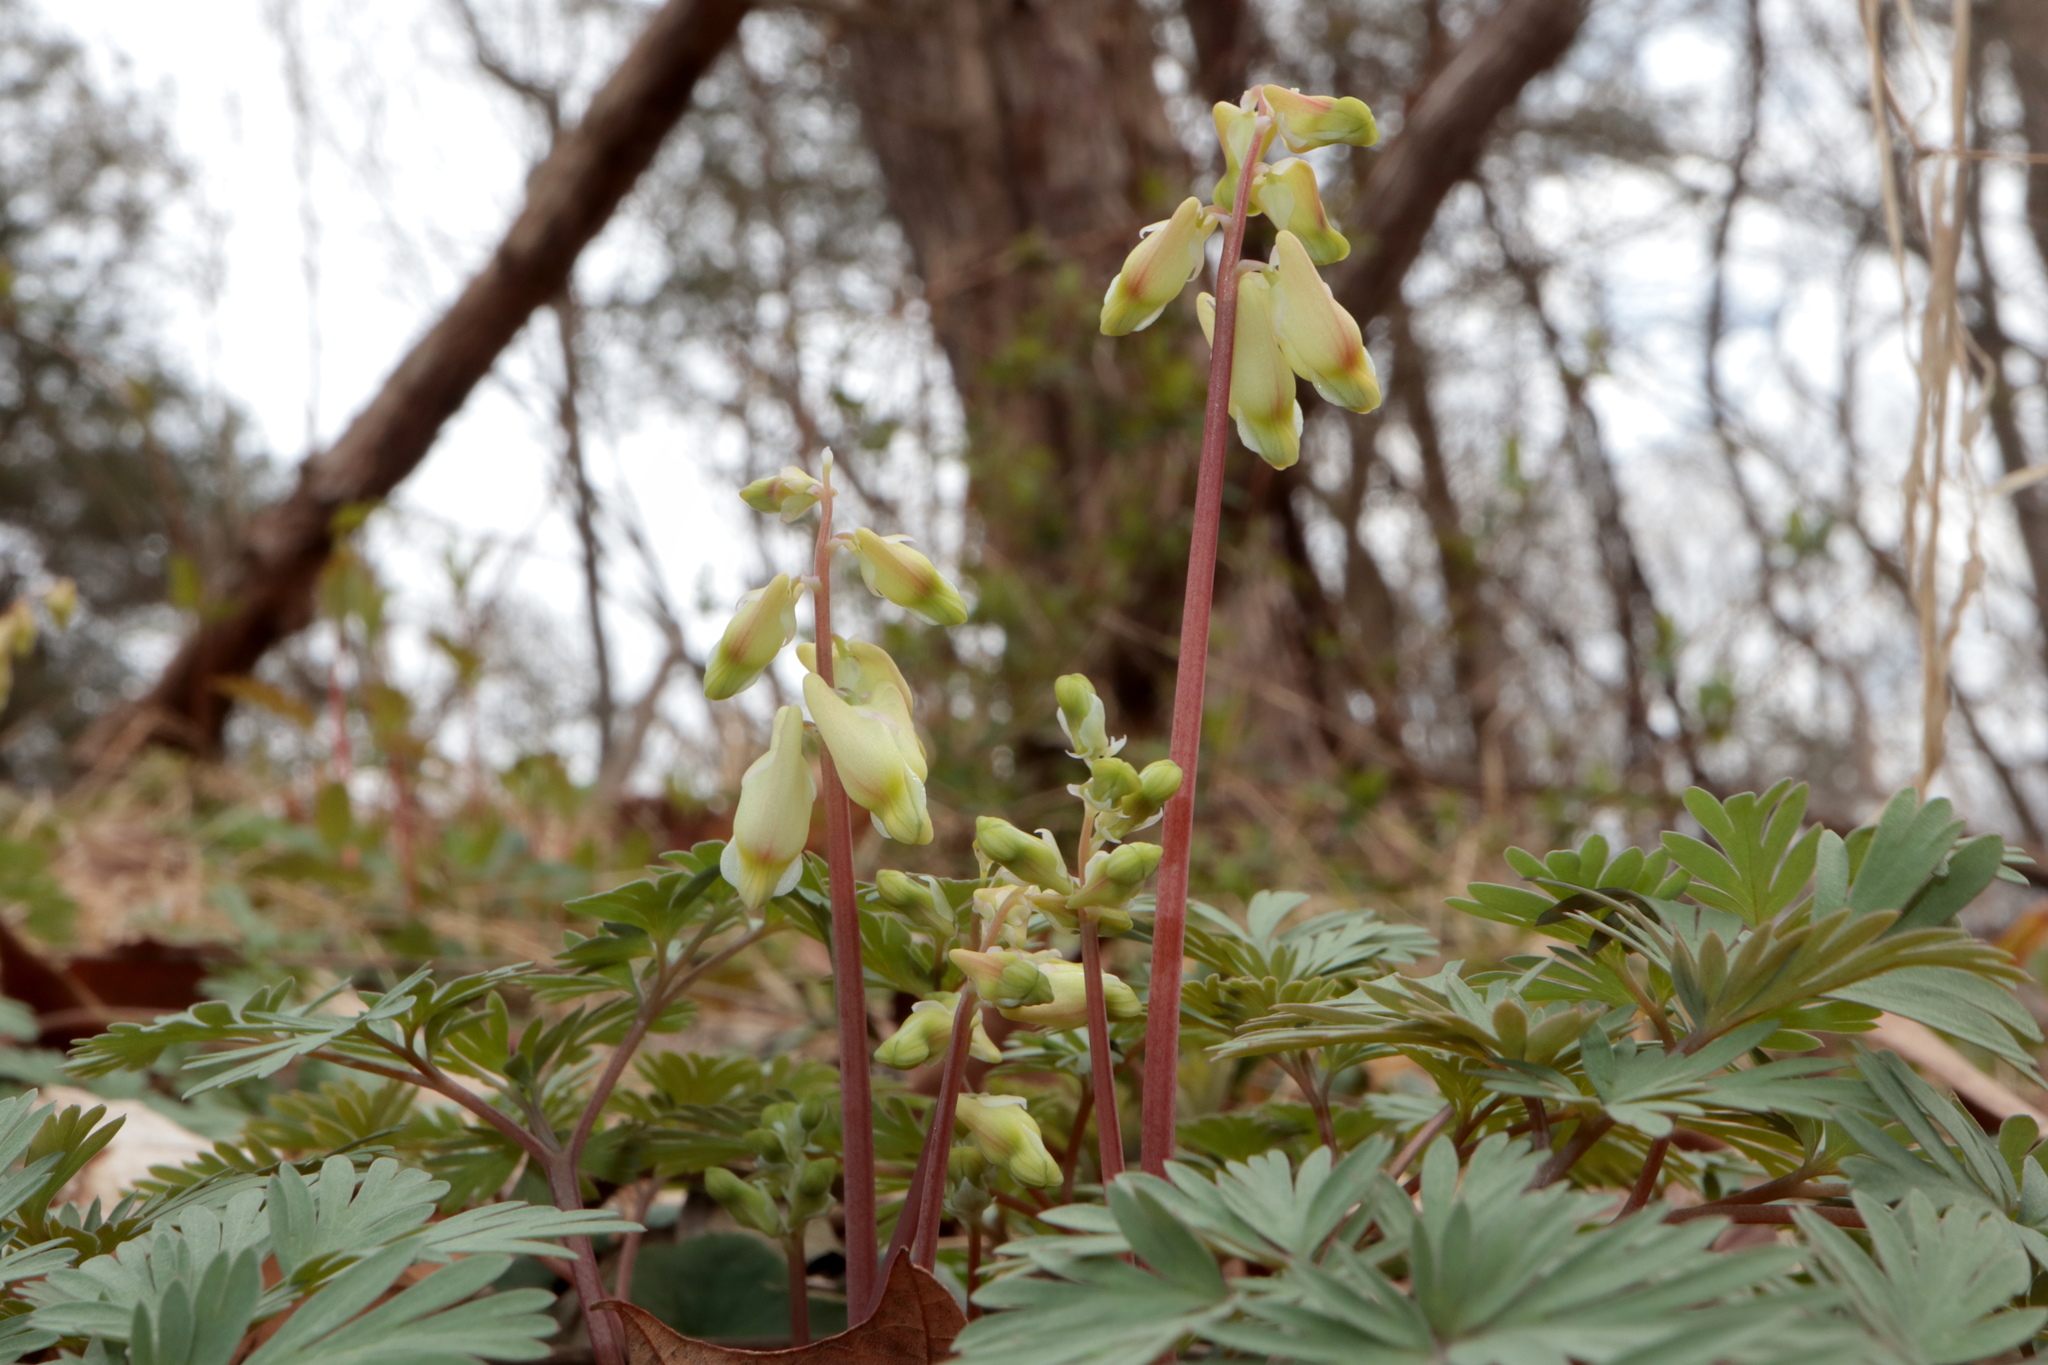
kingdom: Plantae
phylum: Tracheophyta
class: Magnoliopsida
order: Ranunculales
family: Papaveraceae
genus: Dicentra
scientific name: Dicentra cucullaria
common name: Dutchman's breeches
